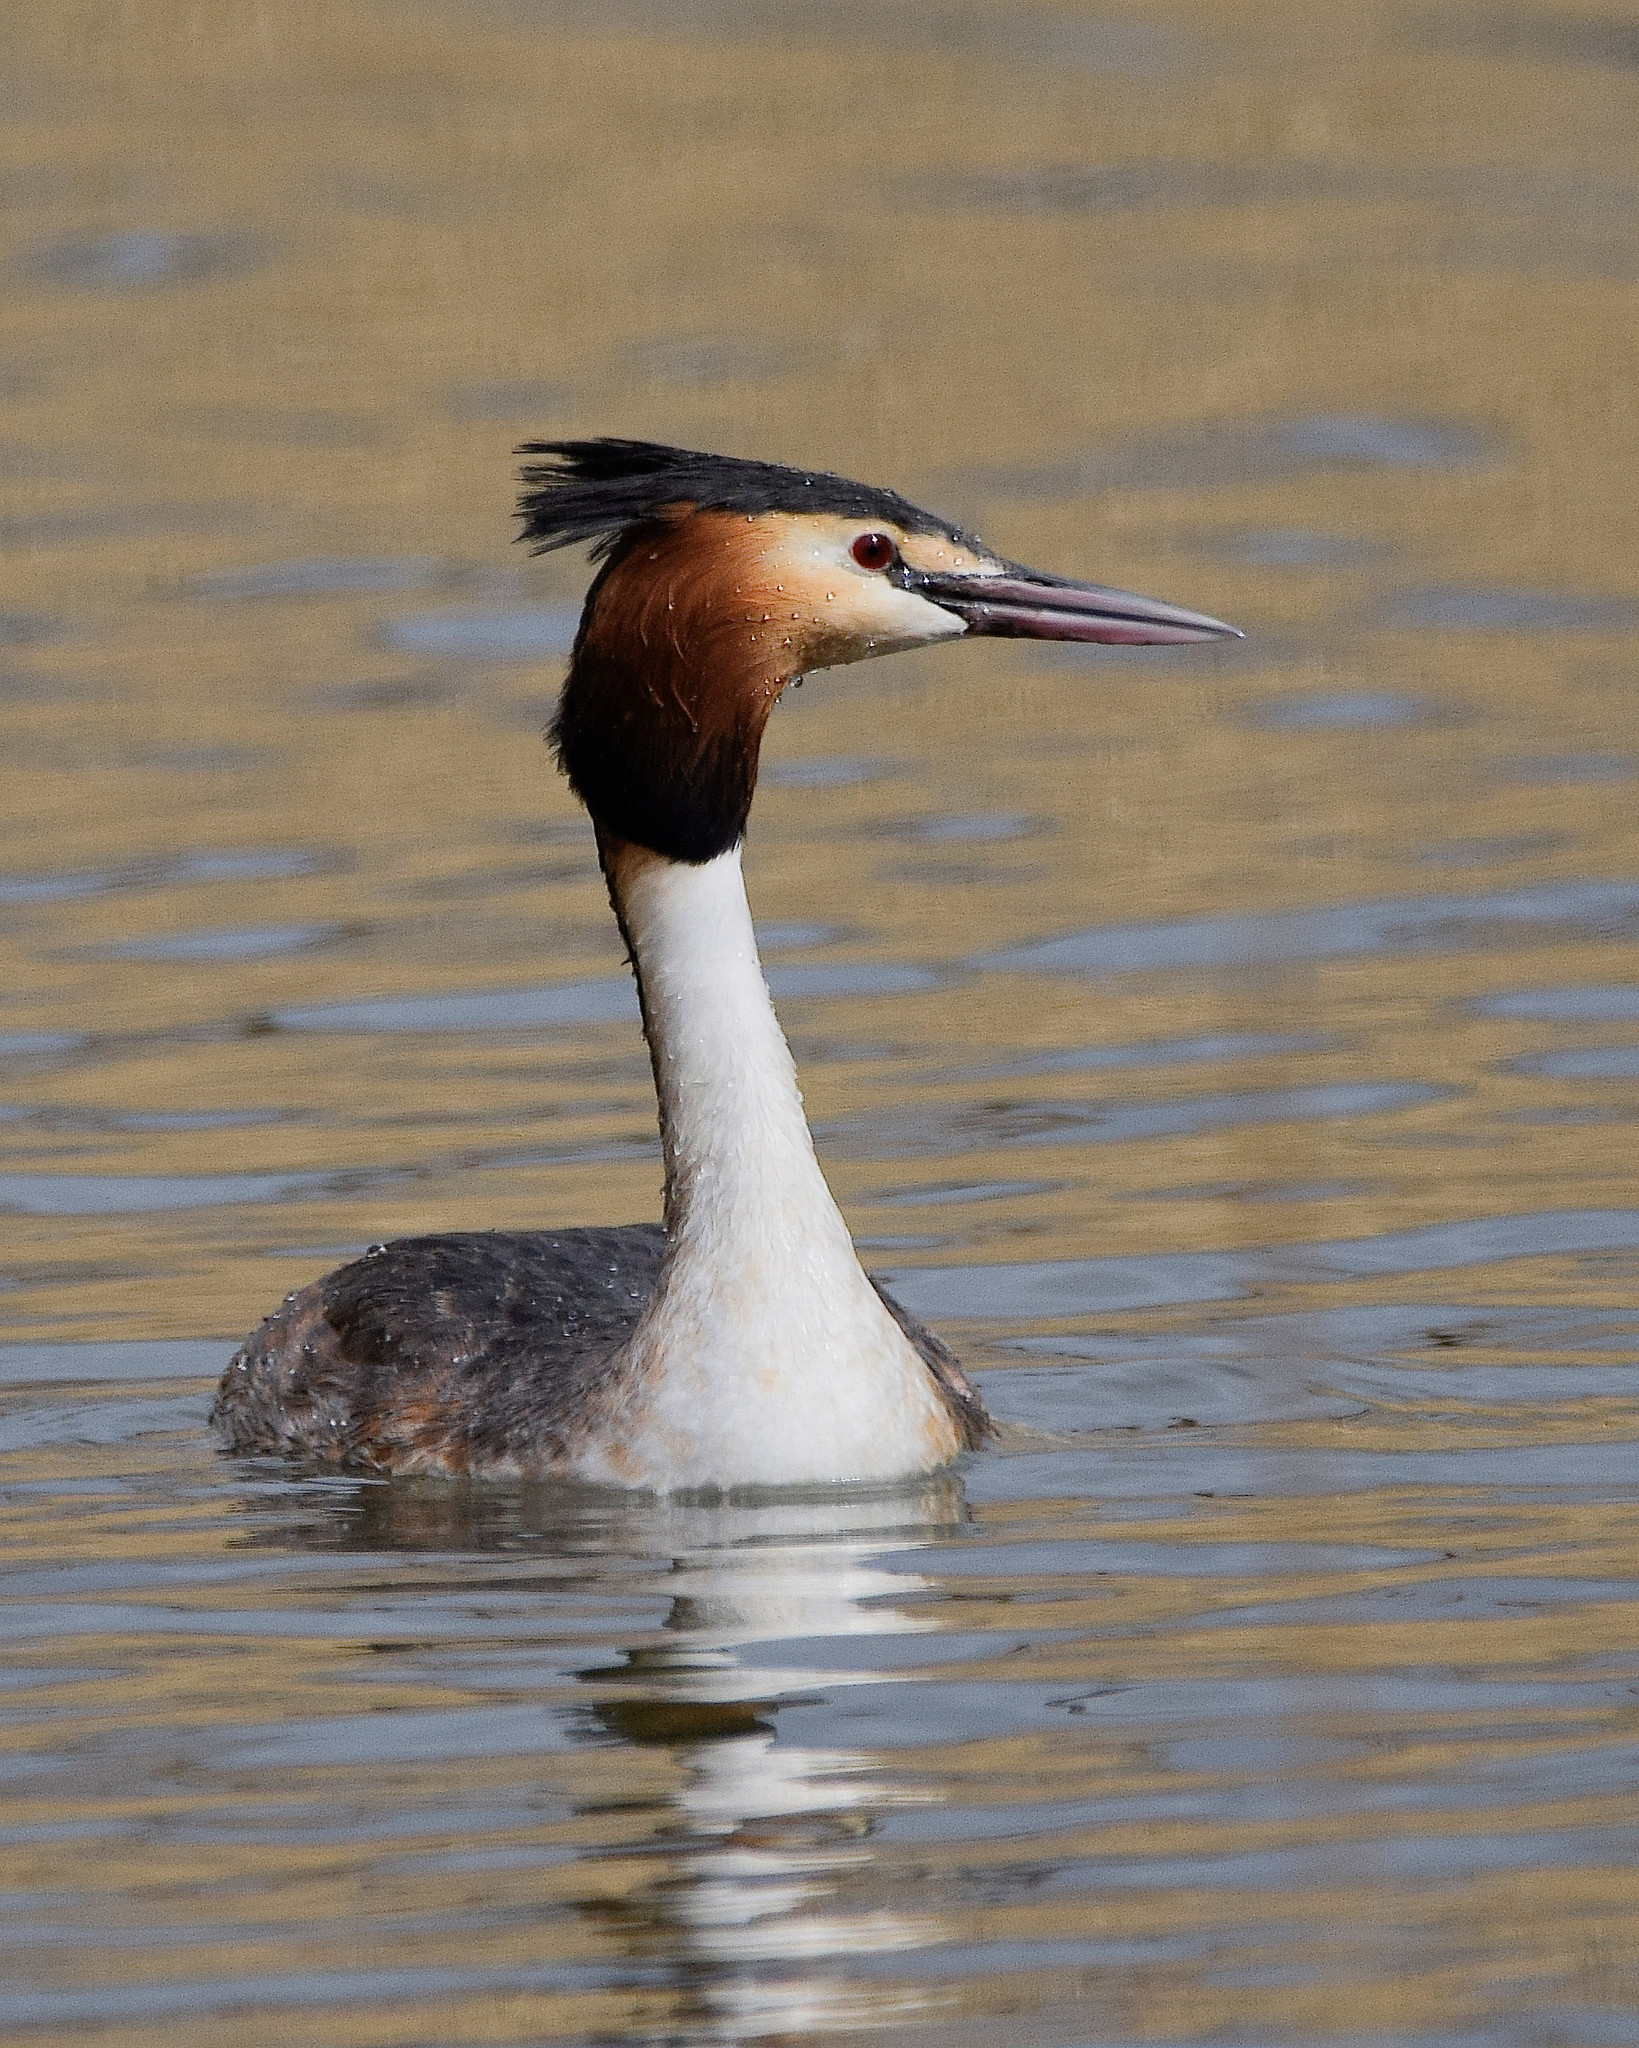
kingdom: Animalia
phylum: Chordata
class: Aves
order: Podicipediformes
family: Podicipedidae
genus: Podiceps
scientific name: Podiceps cristatus
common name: Great crested grebe
